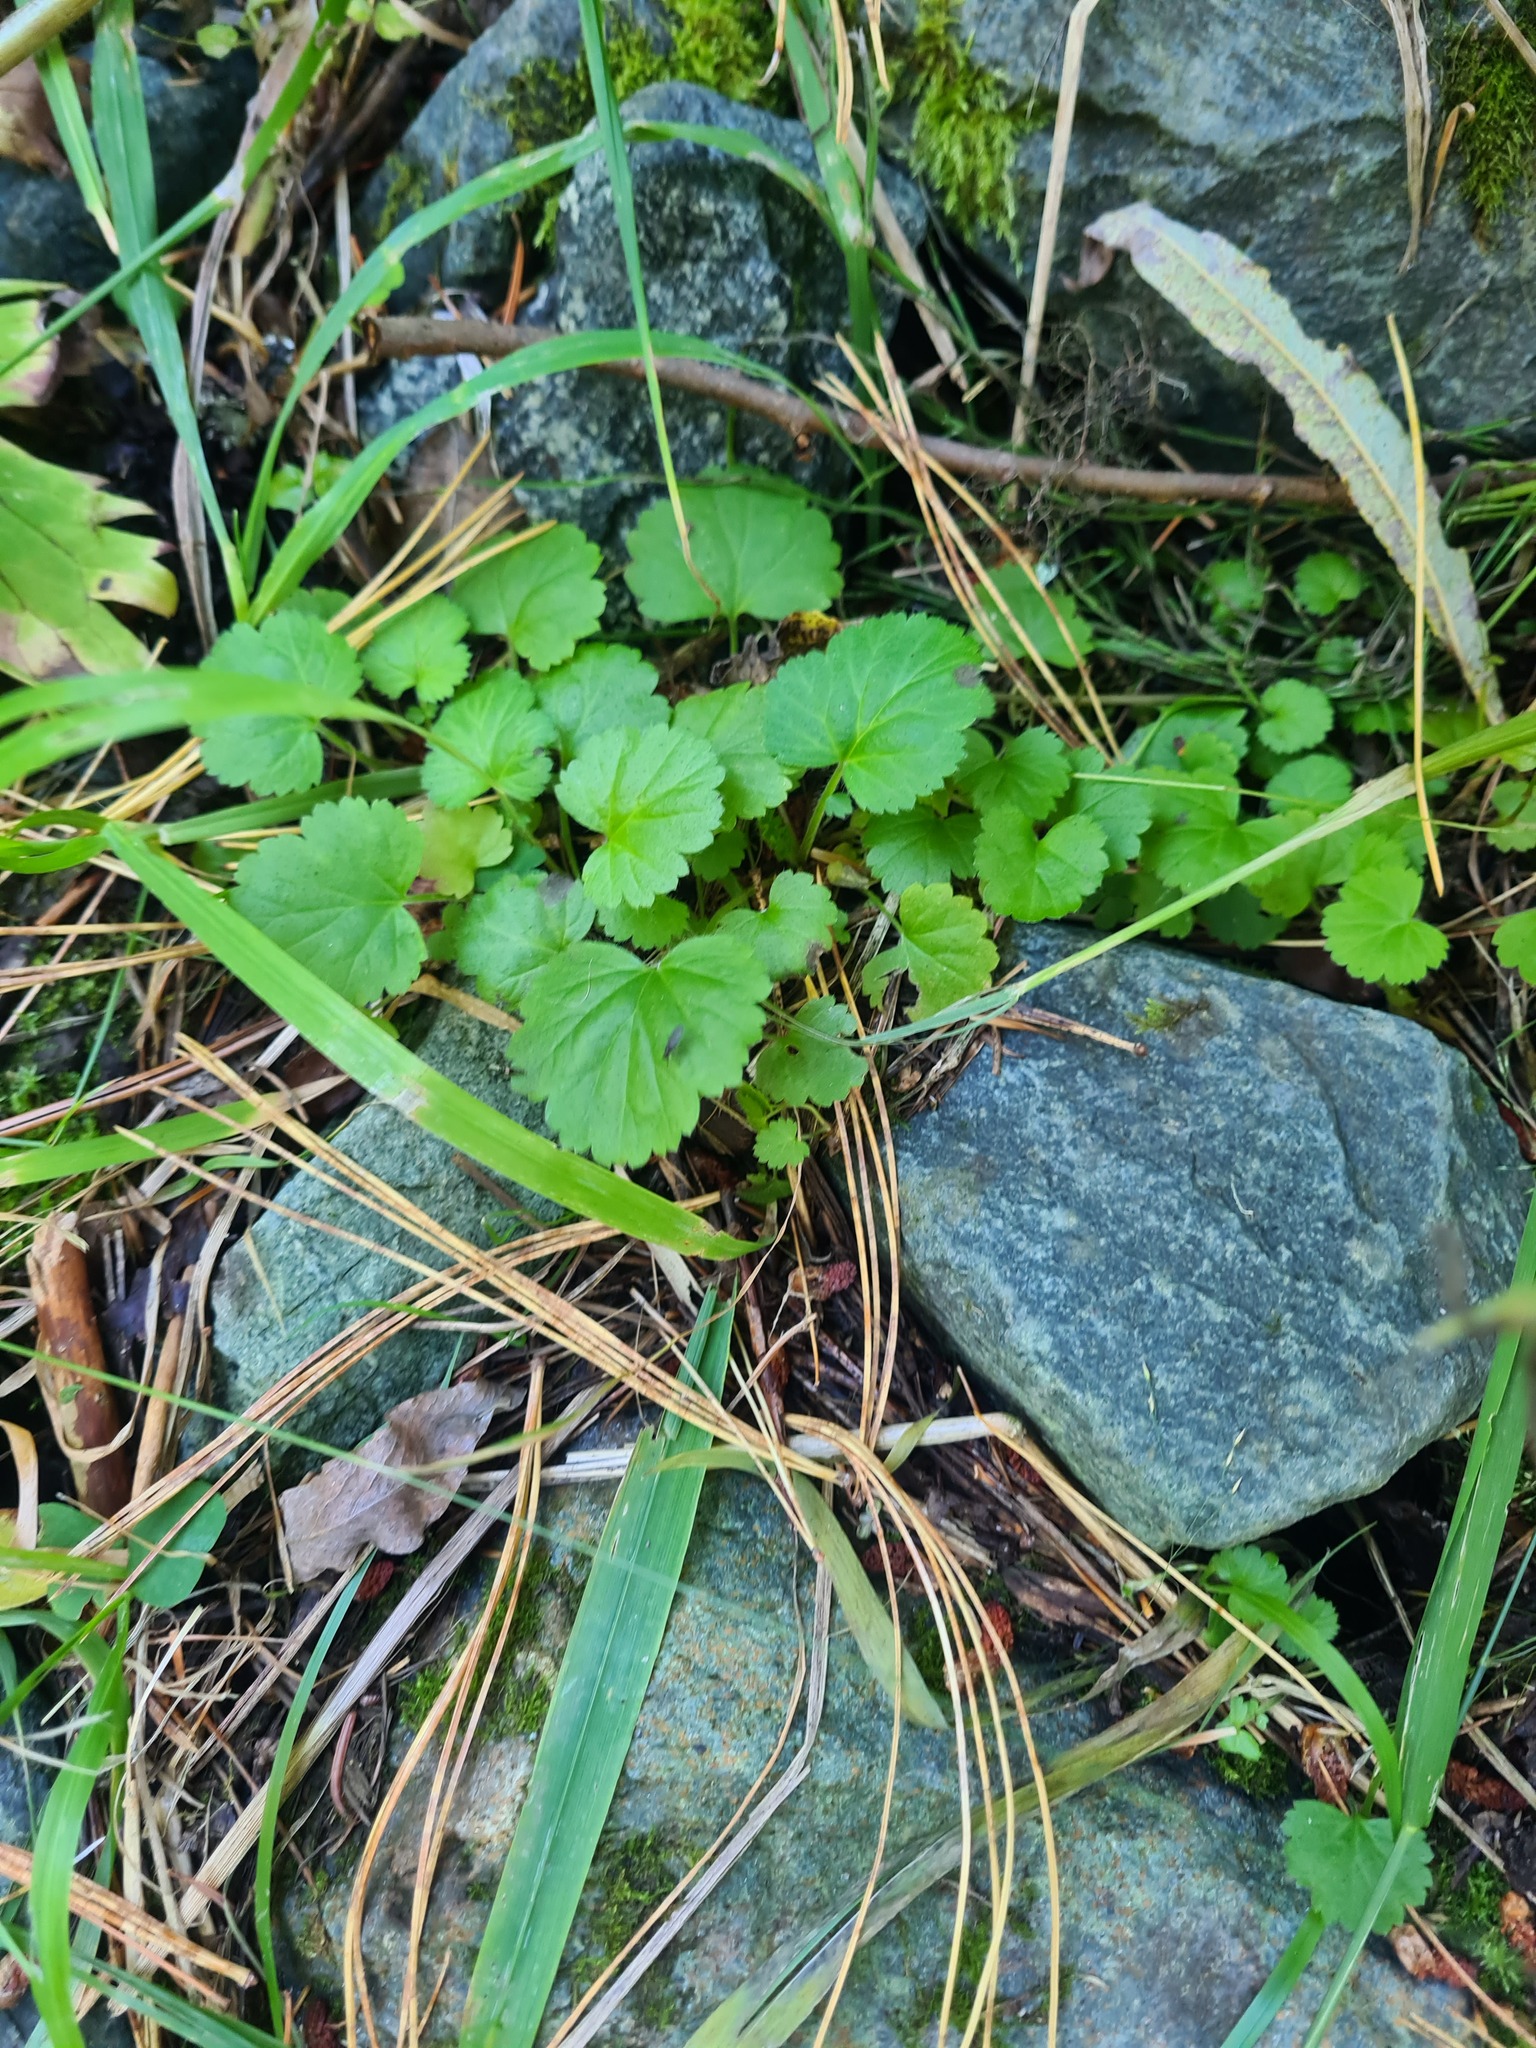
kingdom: Plantae
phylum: Tracheophyta
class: Magnoliopsida
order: Lamiales
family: Lamiaceae
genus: Glechoma
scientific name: Glechoma hederacea
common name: Ground ivy
